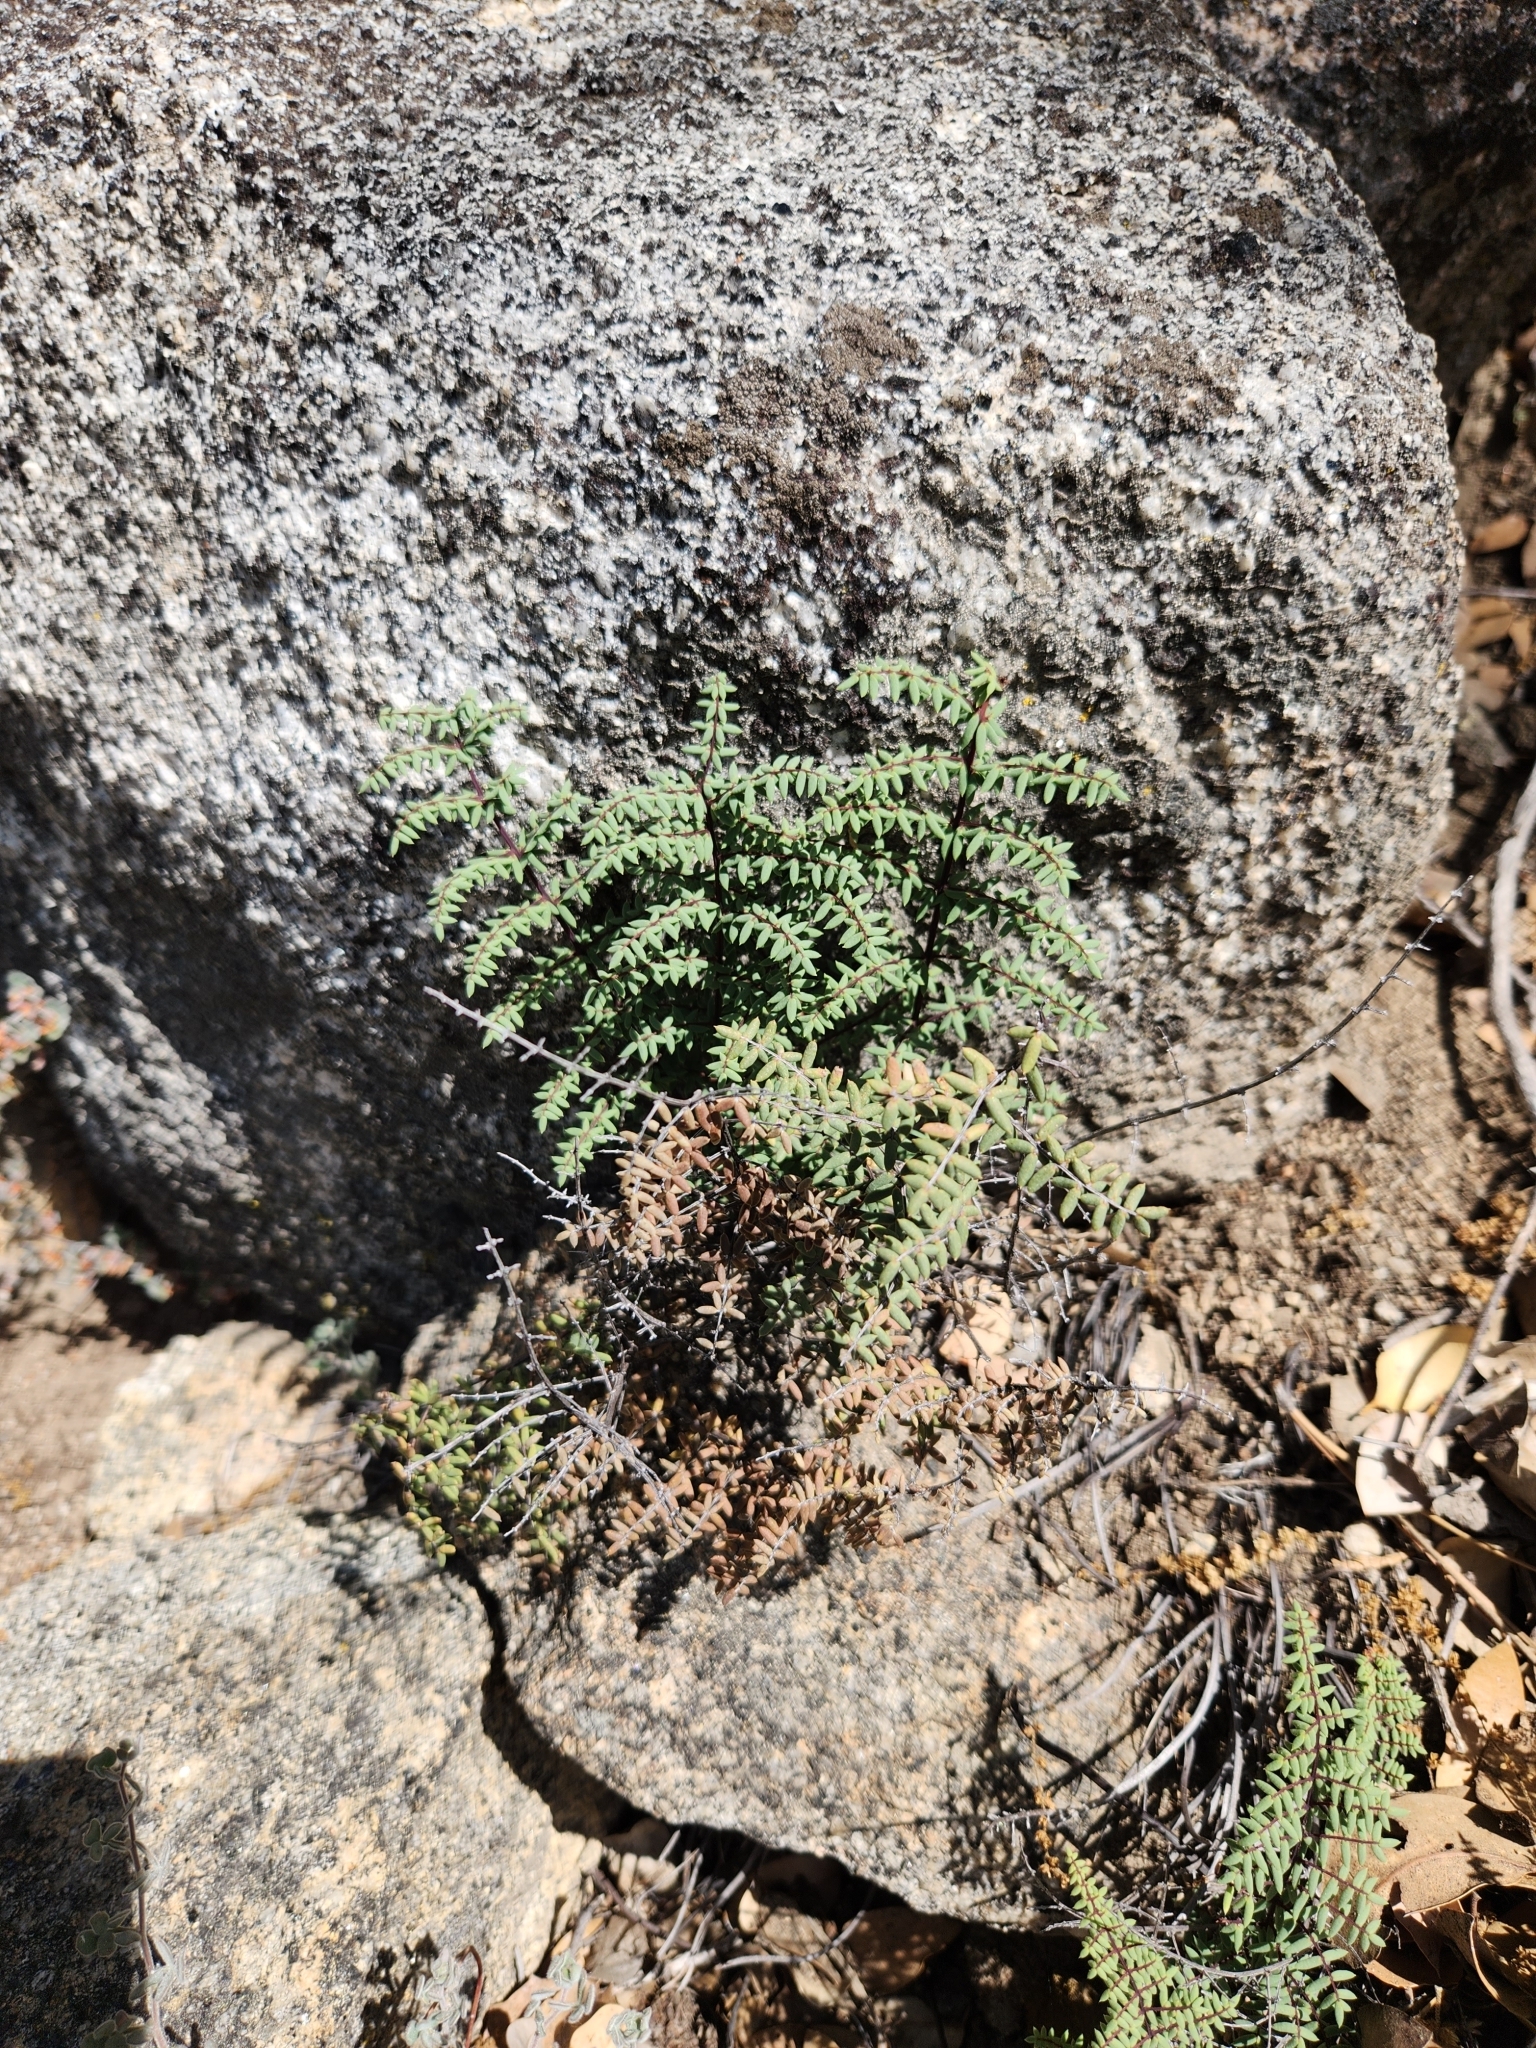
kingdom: Plantae
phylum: Tracheophyta
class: Polypodiopsida
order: Polypodiales
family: Pteridaceae
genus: Pellaea
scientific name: Pellaea mucronata
